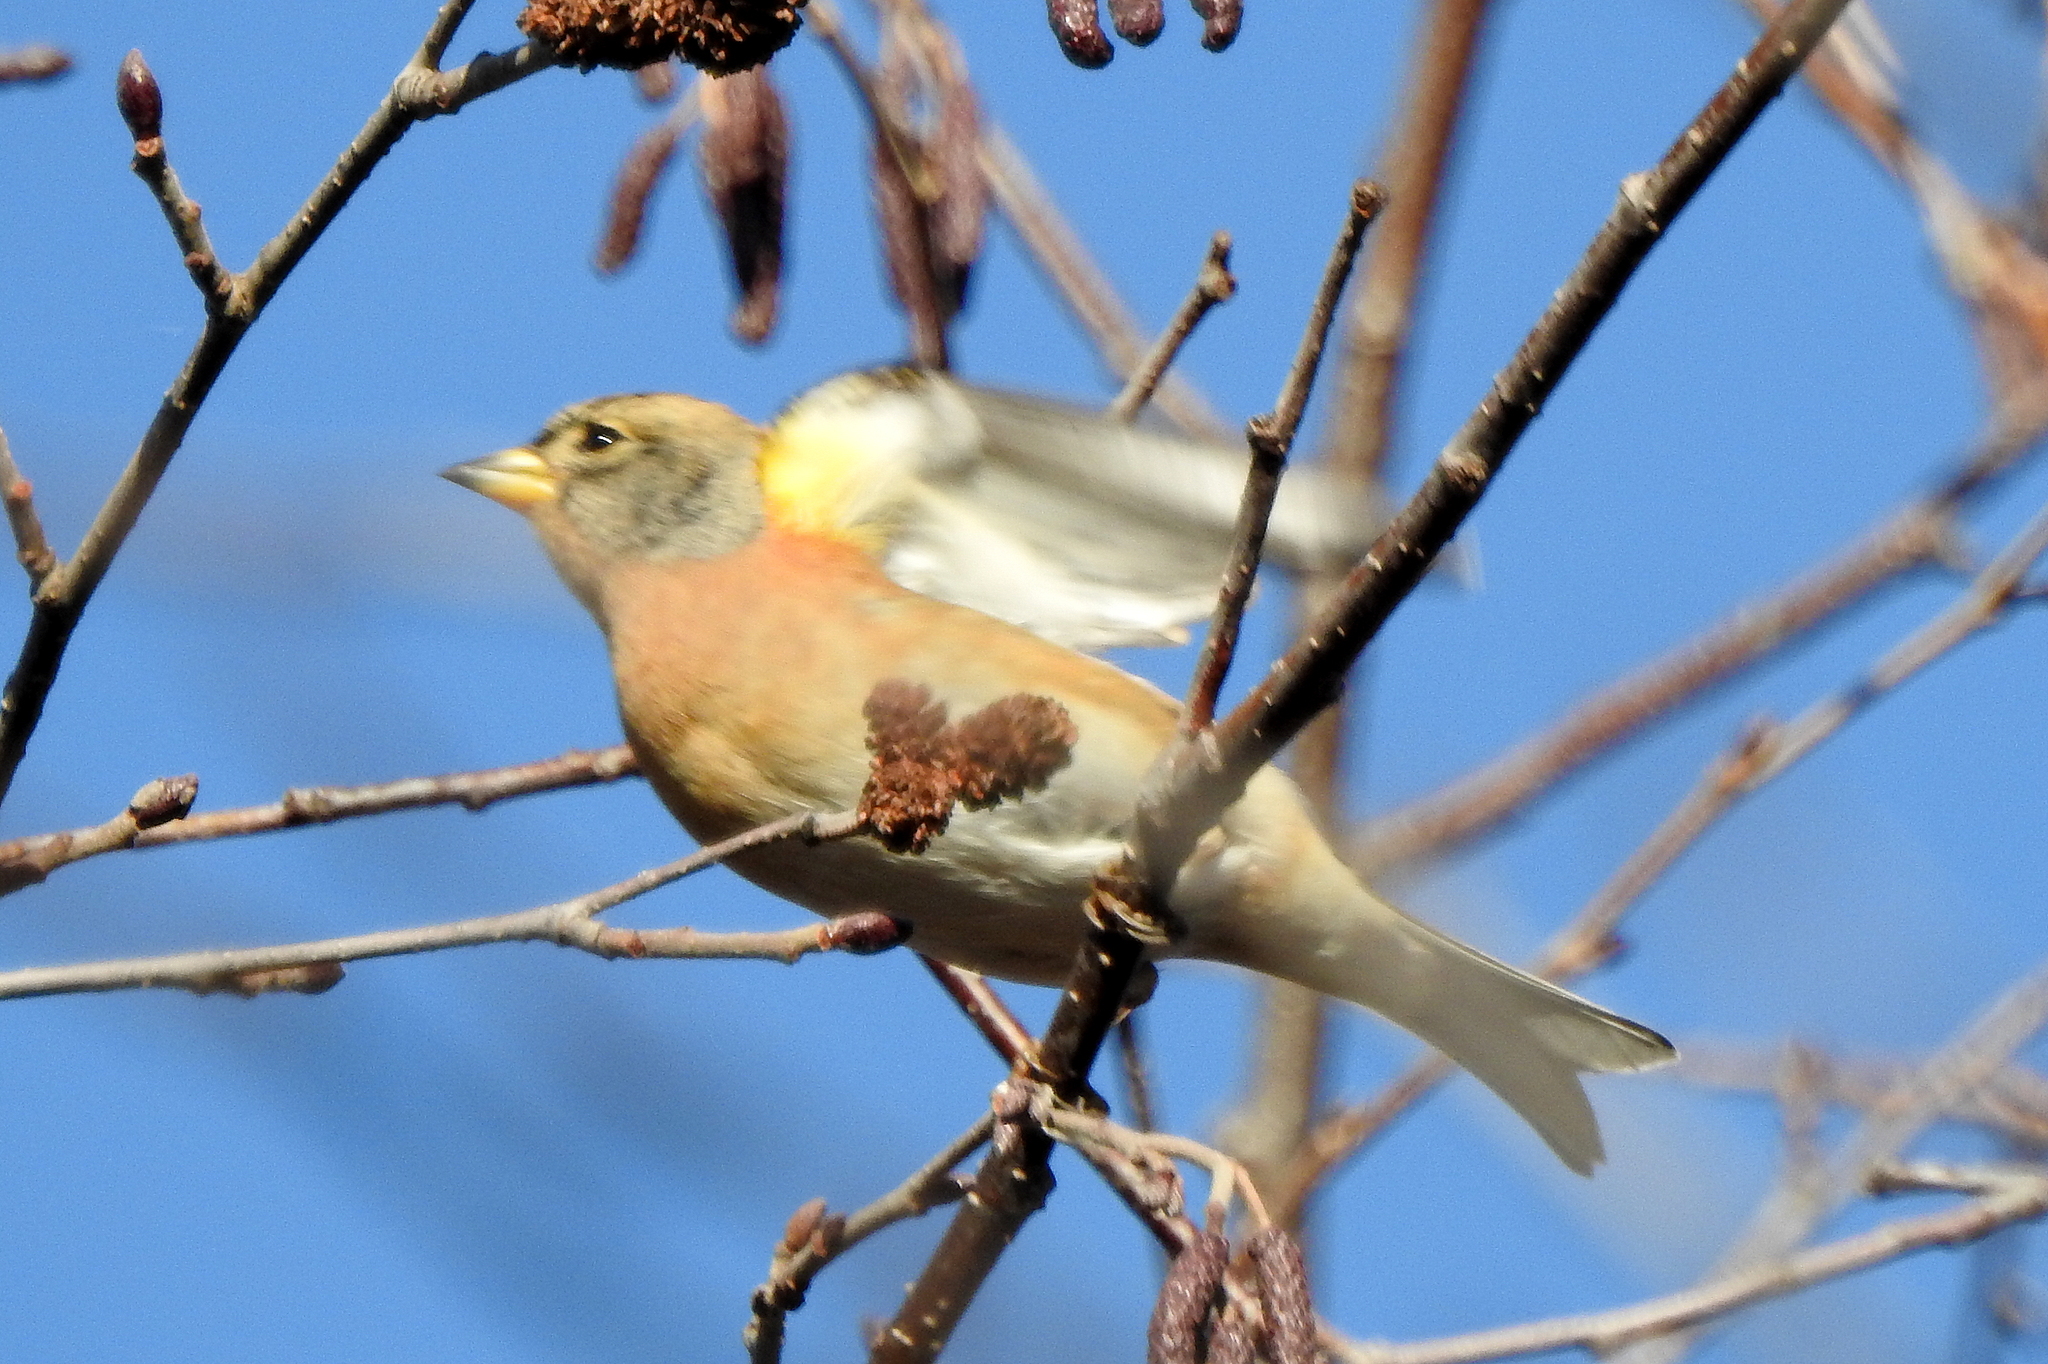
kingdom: Animalia
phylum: Chordata
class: Aves
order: Passeriformes
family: Fringillidae
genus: Fringilla
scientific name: Fringilla montifringilla
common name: Brambling
